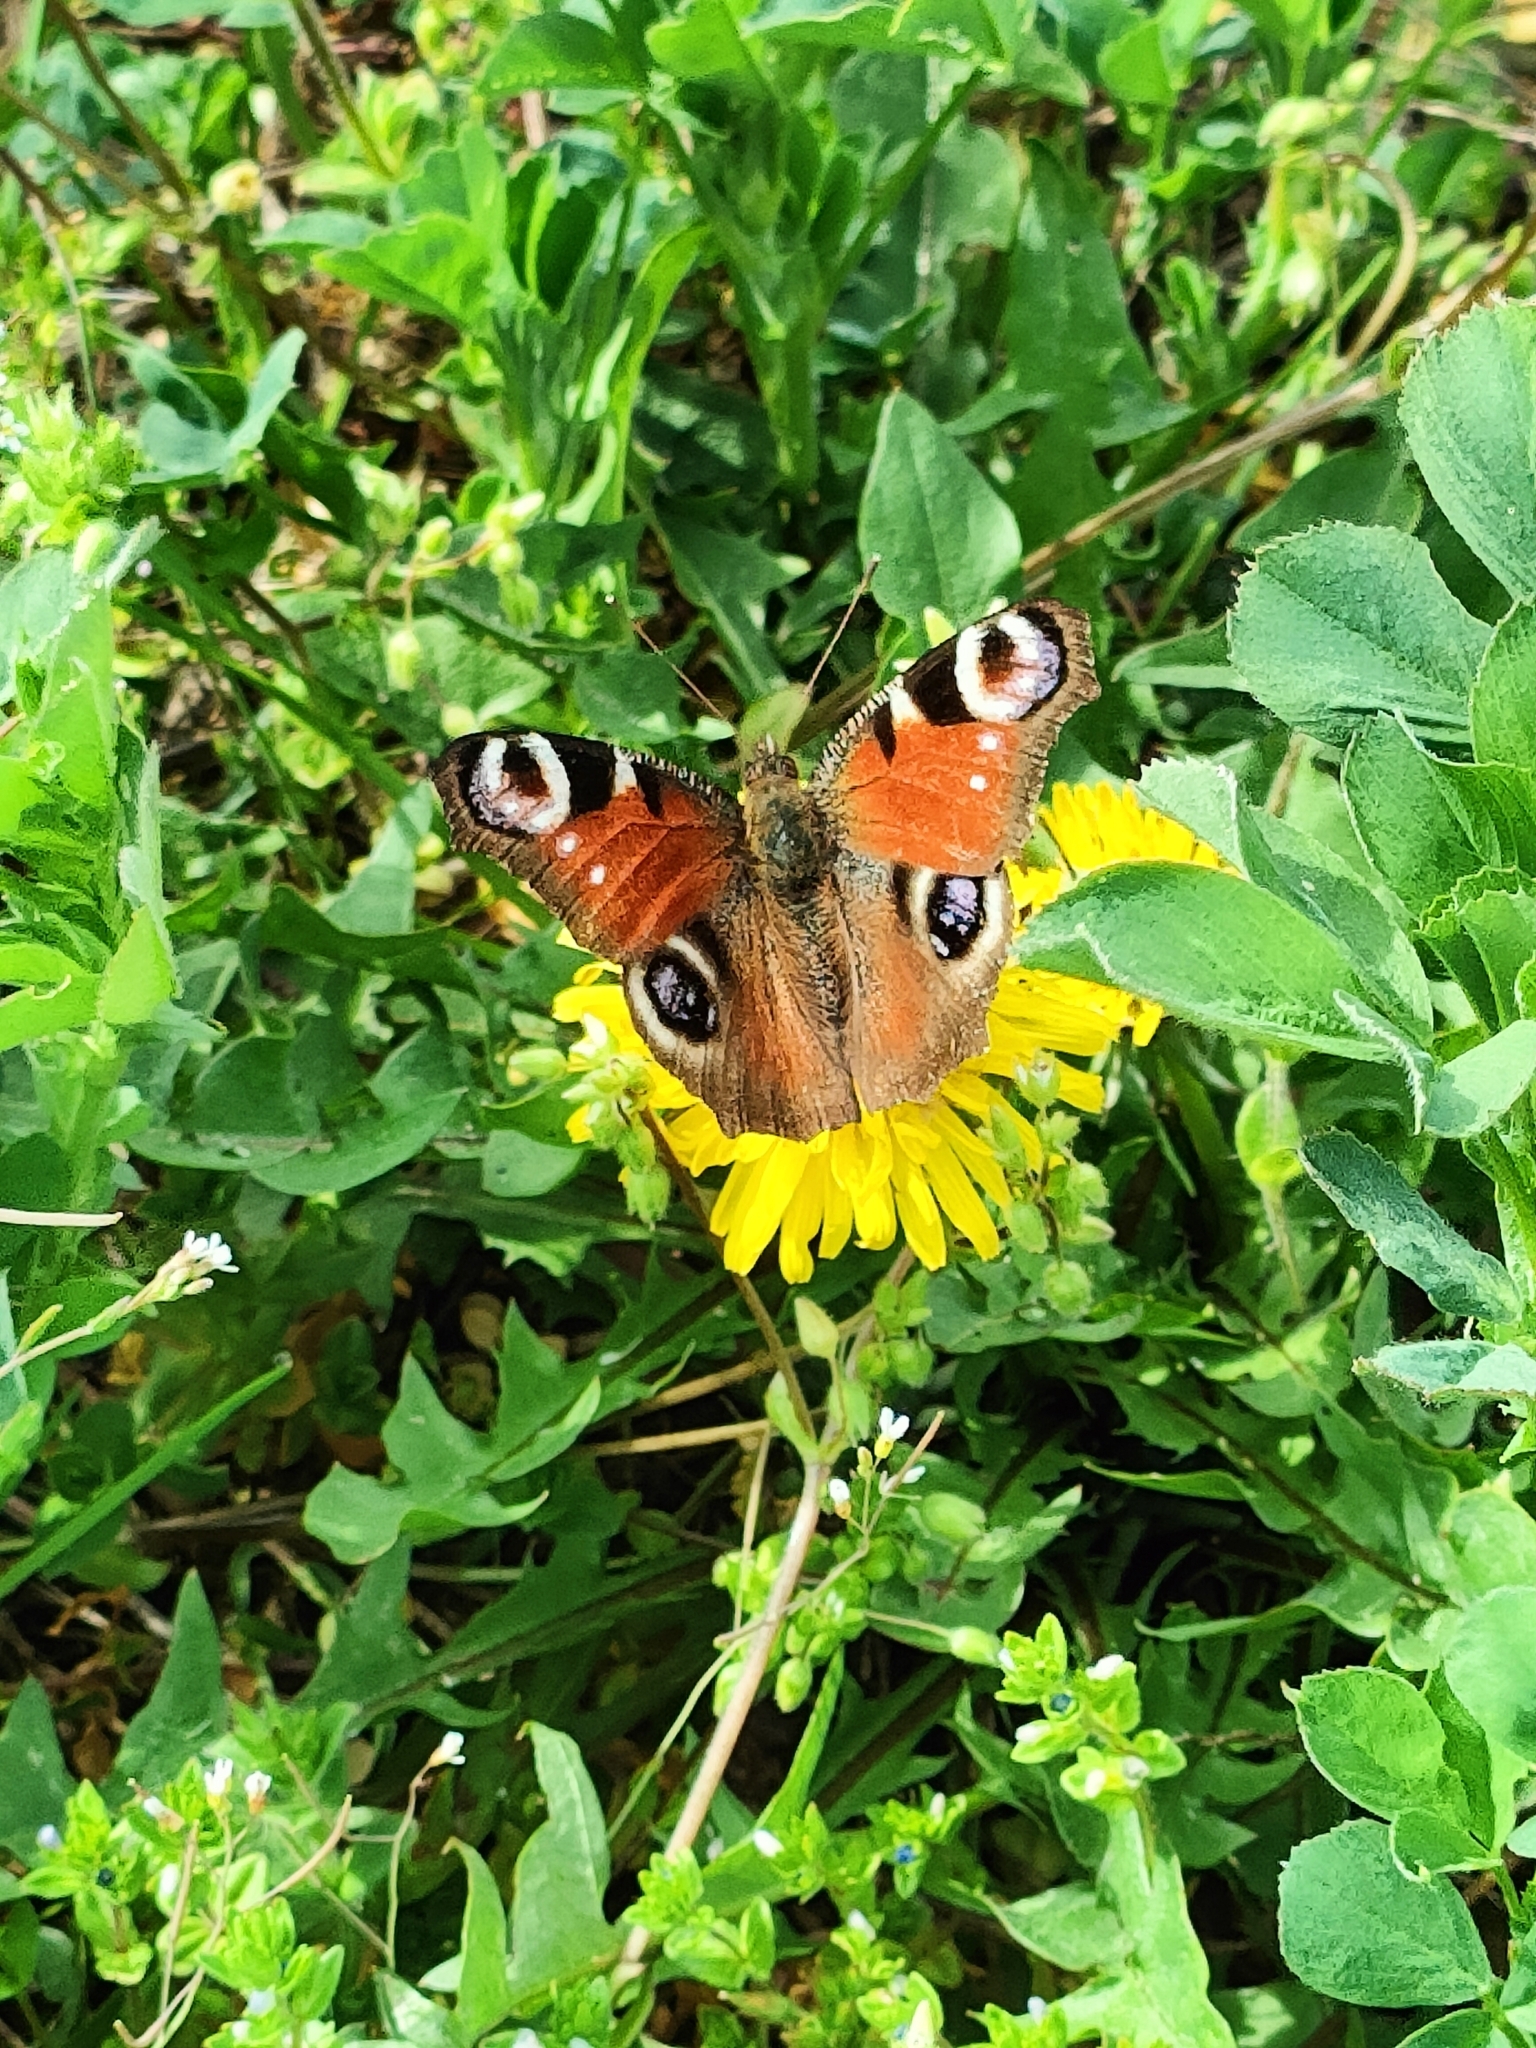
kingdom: Animalia
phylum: Arthropoda
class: Insecta
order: Lepidoptera
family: Nymphalidae
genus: Aglais
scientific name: Aglais io
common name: Peacock
